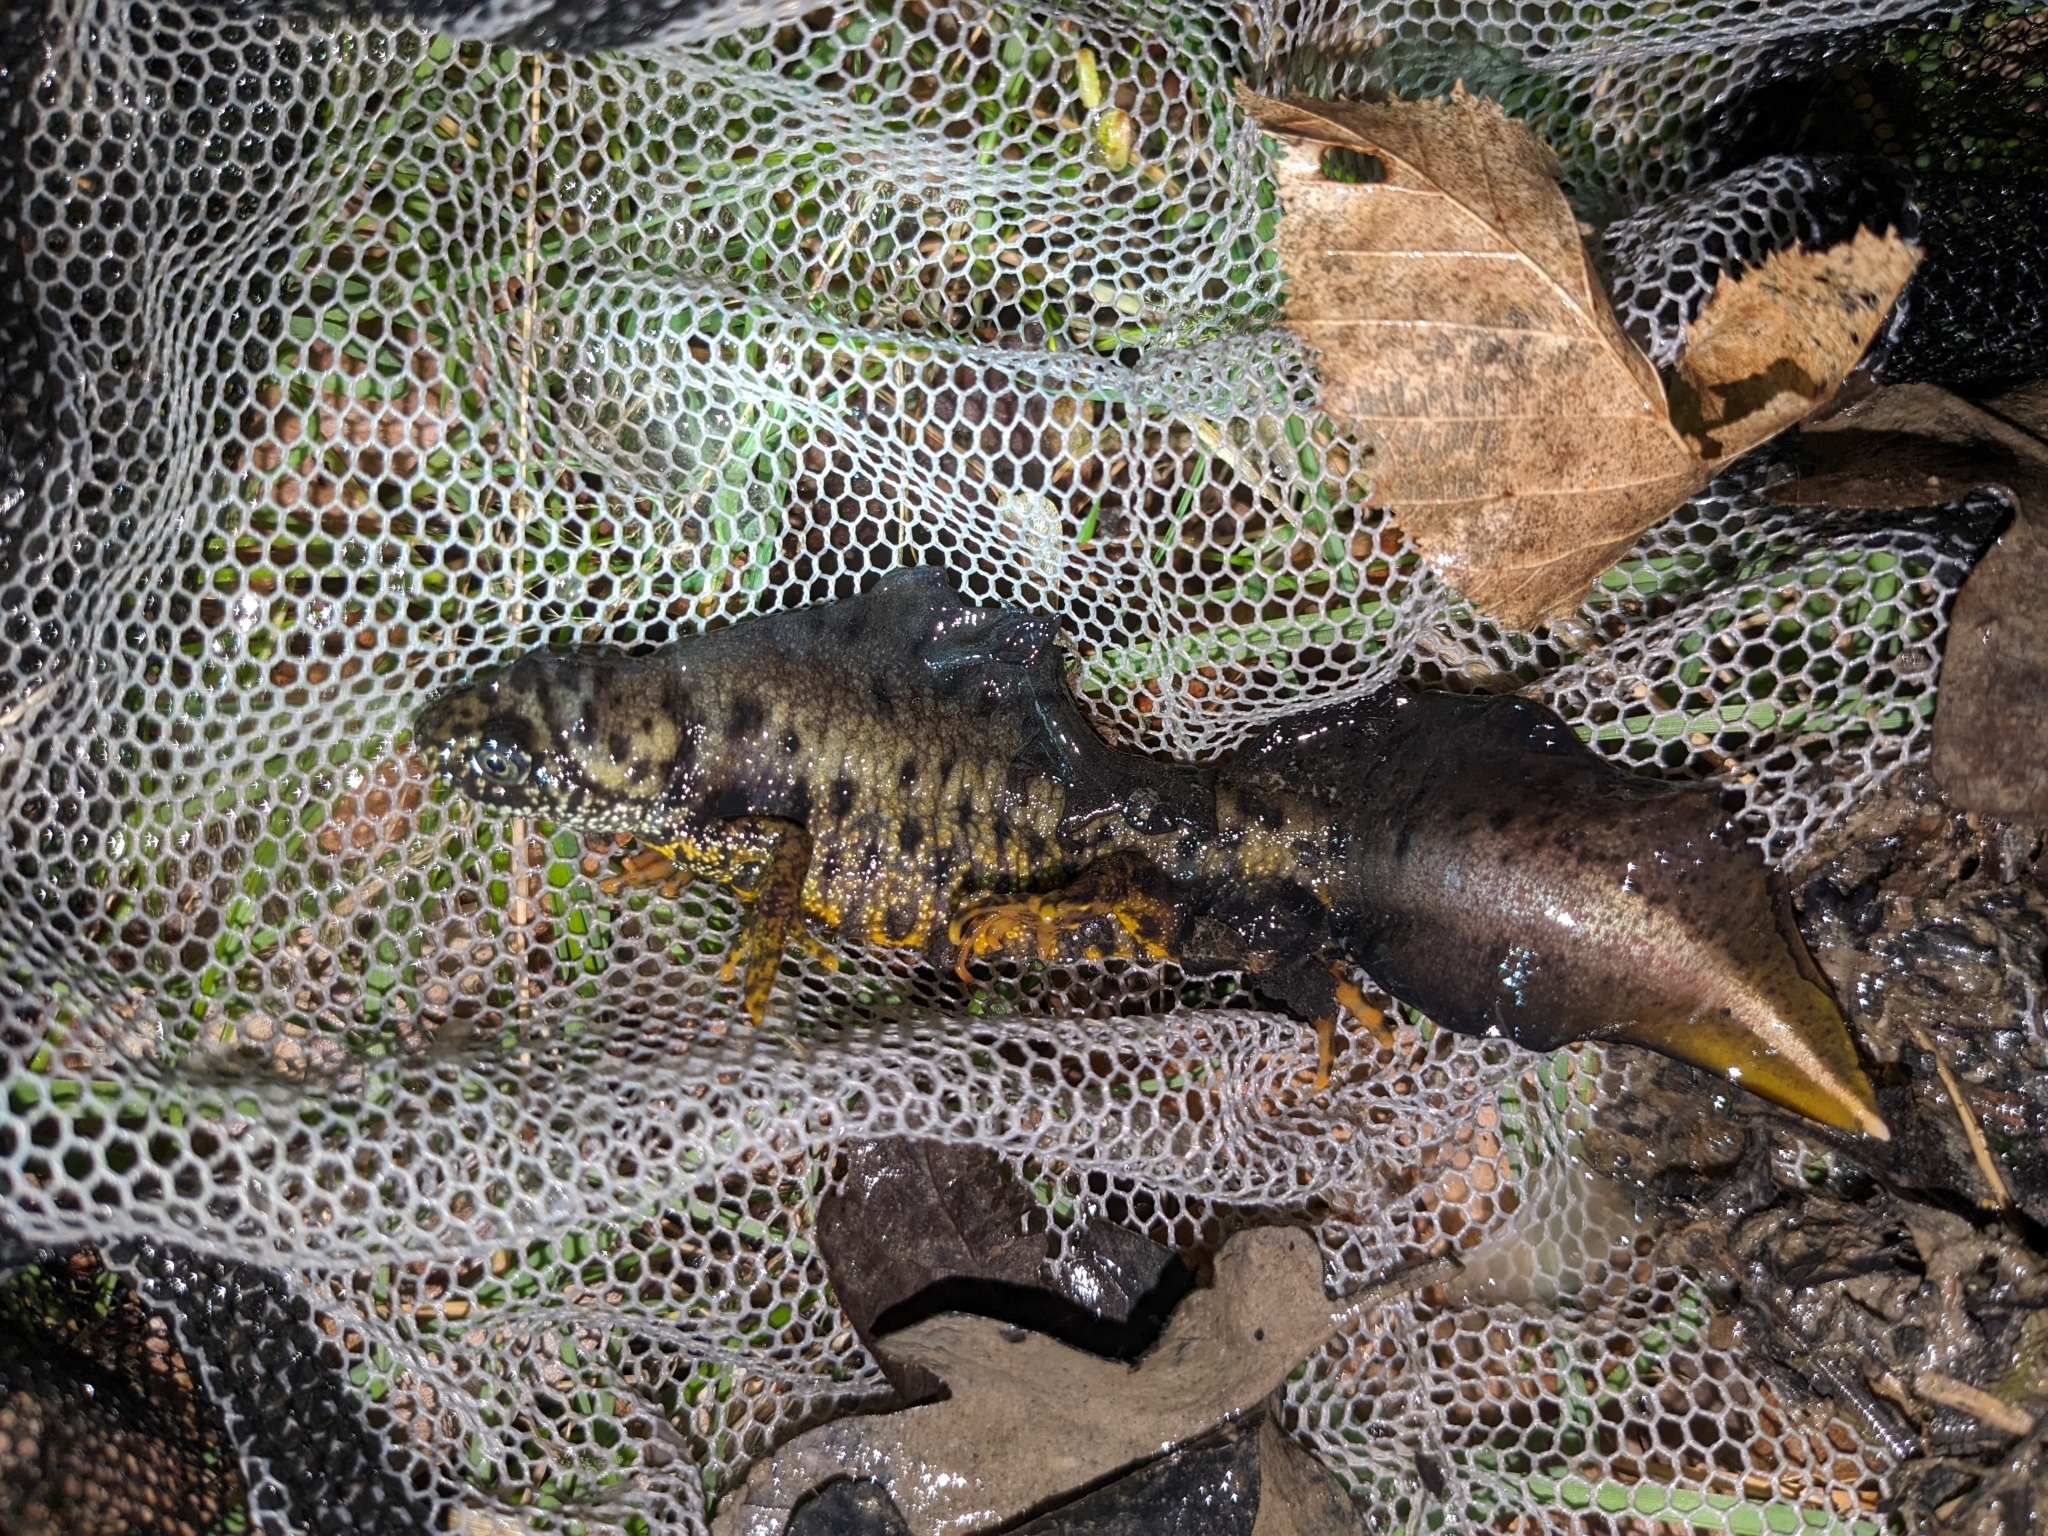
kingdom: Animalia
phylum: Chordata
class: Amphibia
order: Caudata
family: Salamandridae
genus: Triturus
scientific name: Triturus cristatus
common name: Crested newt
